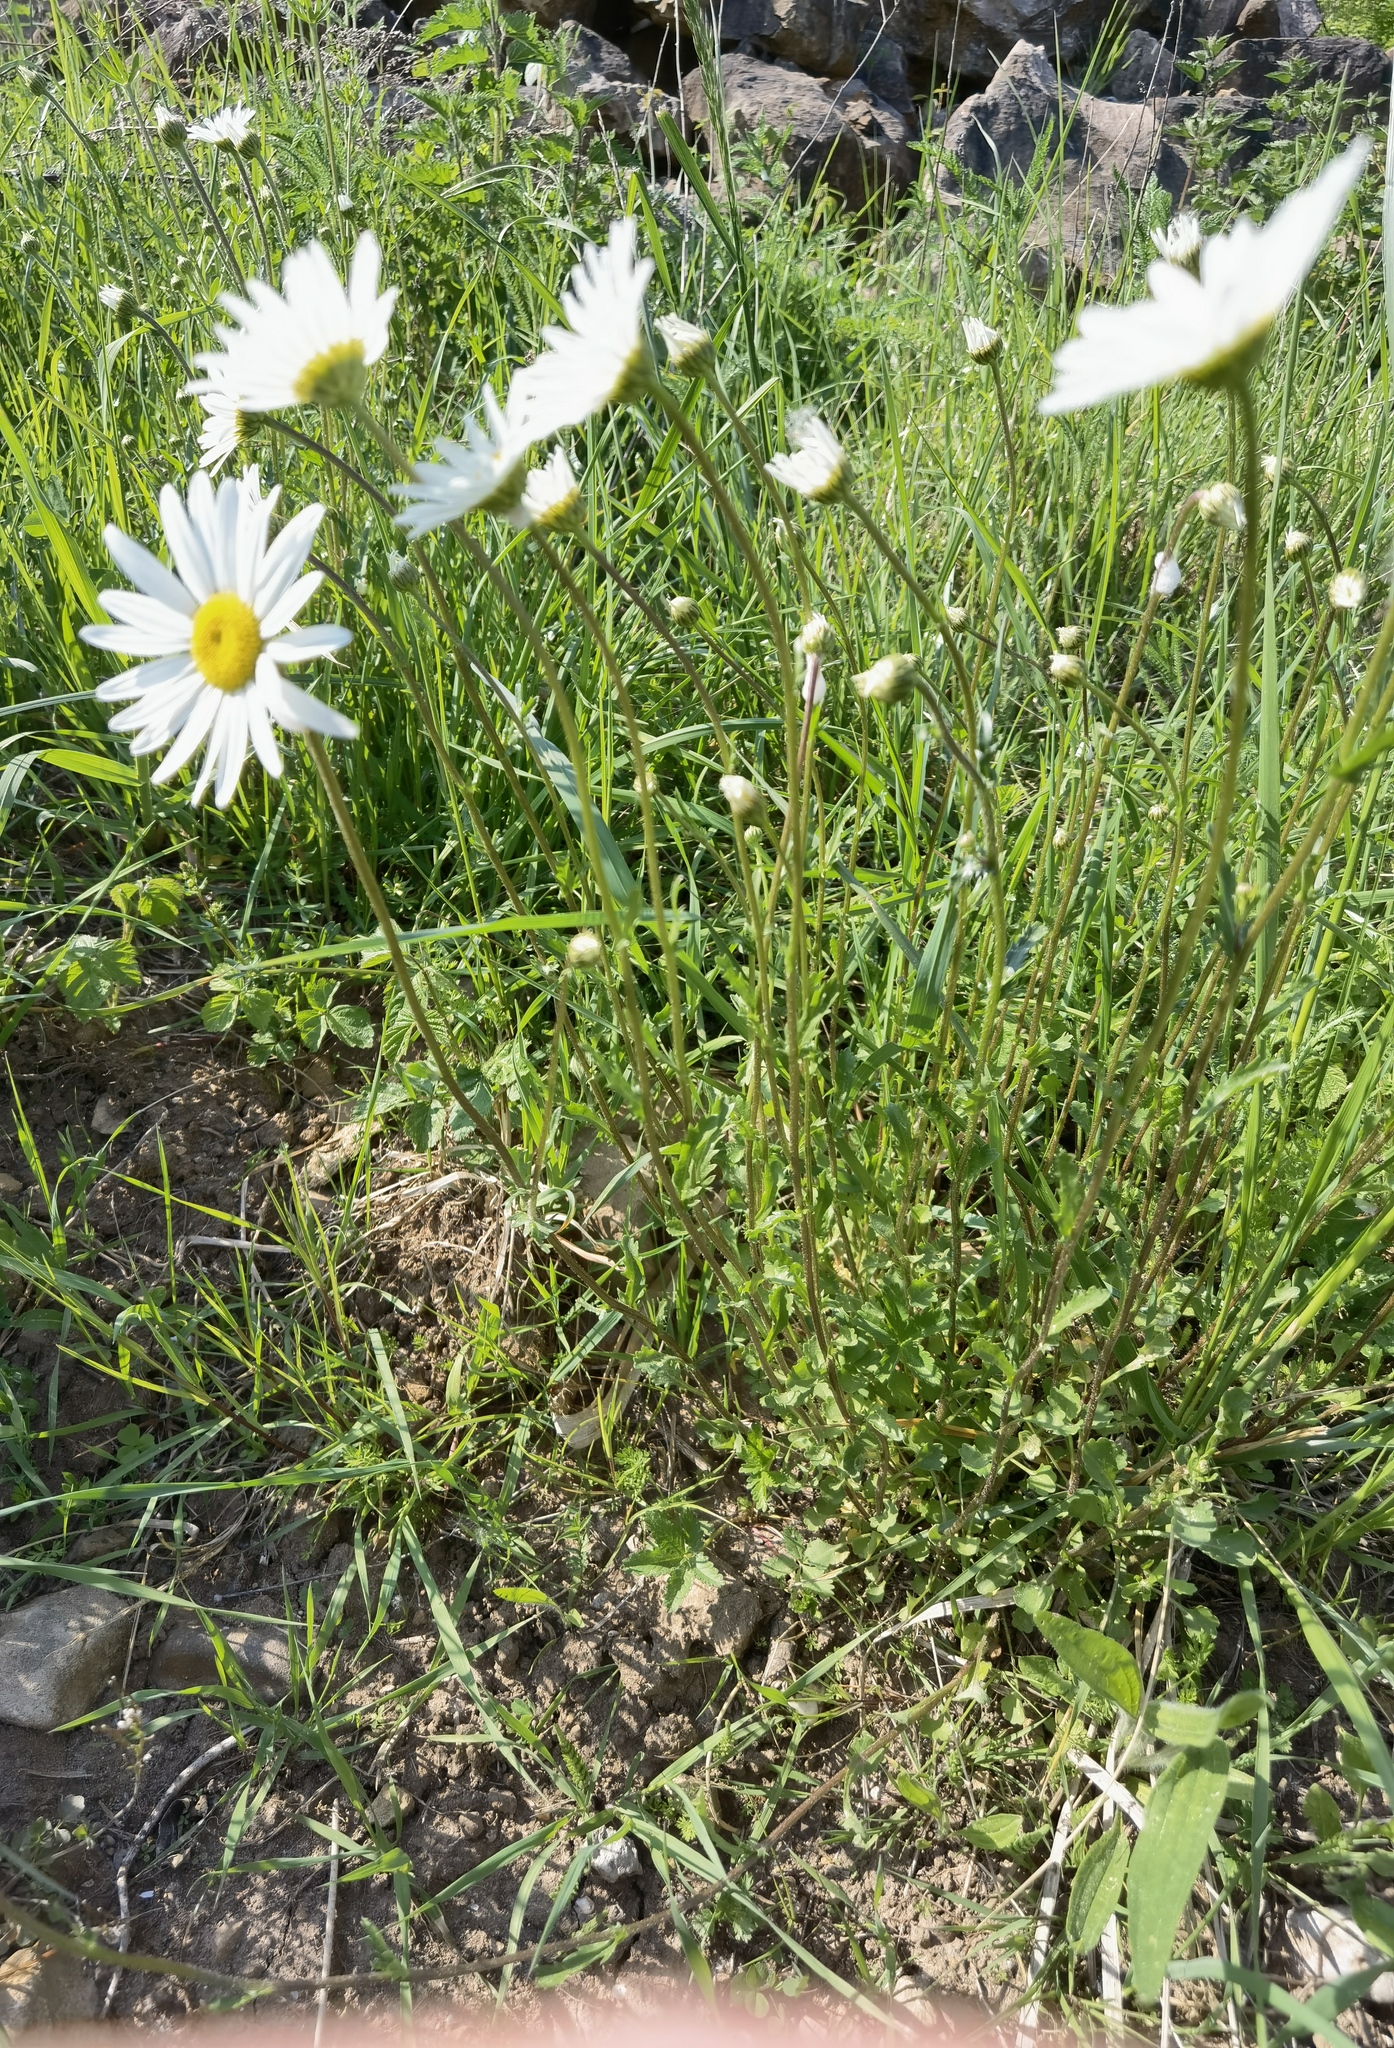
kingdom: Plantae
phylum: Tracheophyta
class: Magnoliopsida
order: Asterales
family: Asteraceae
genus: Leucanthemum
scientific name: Leucanthemum vulgare
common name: Oxeye daisy
